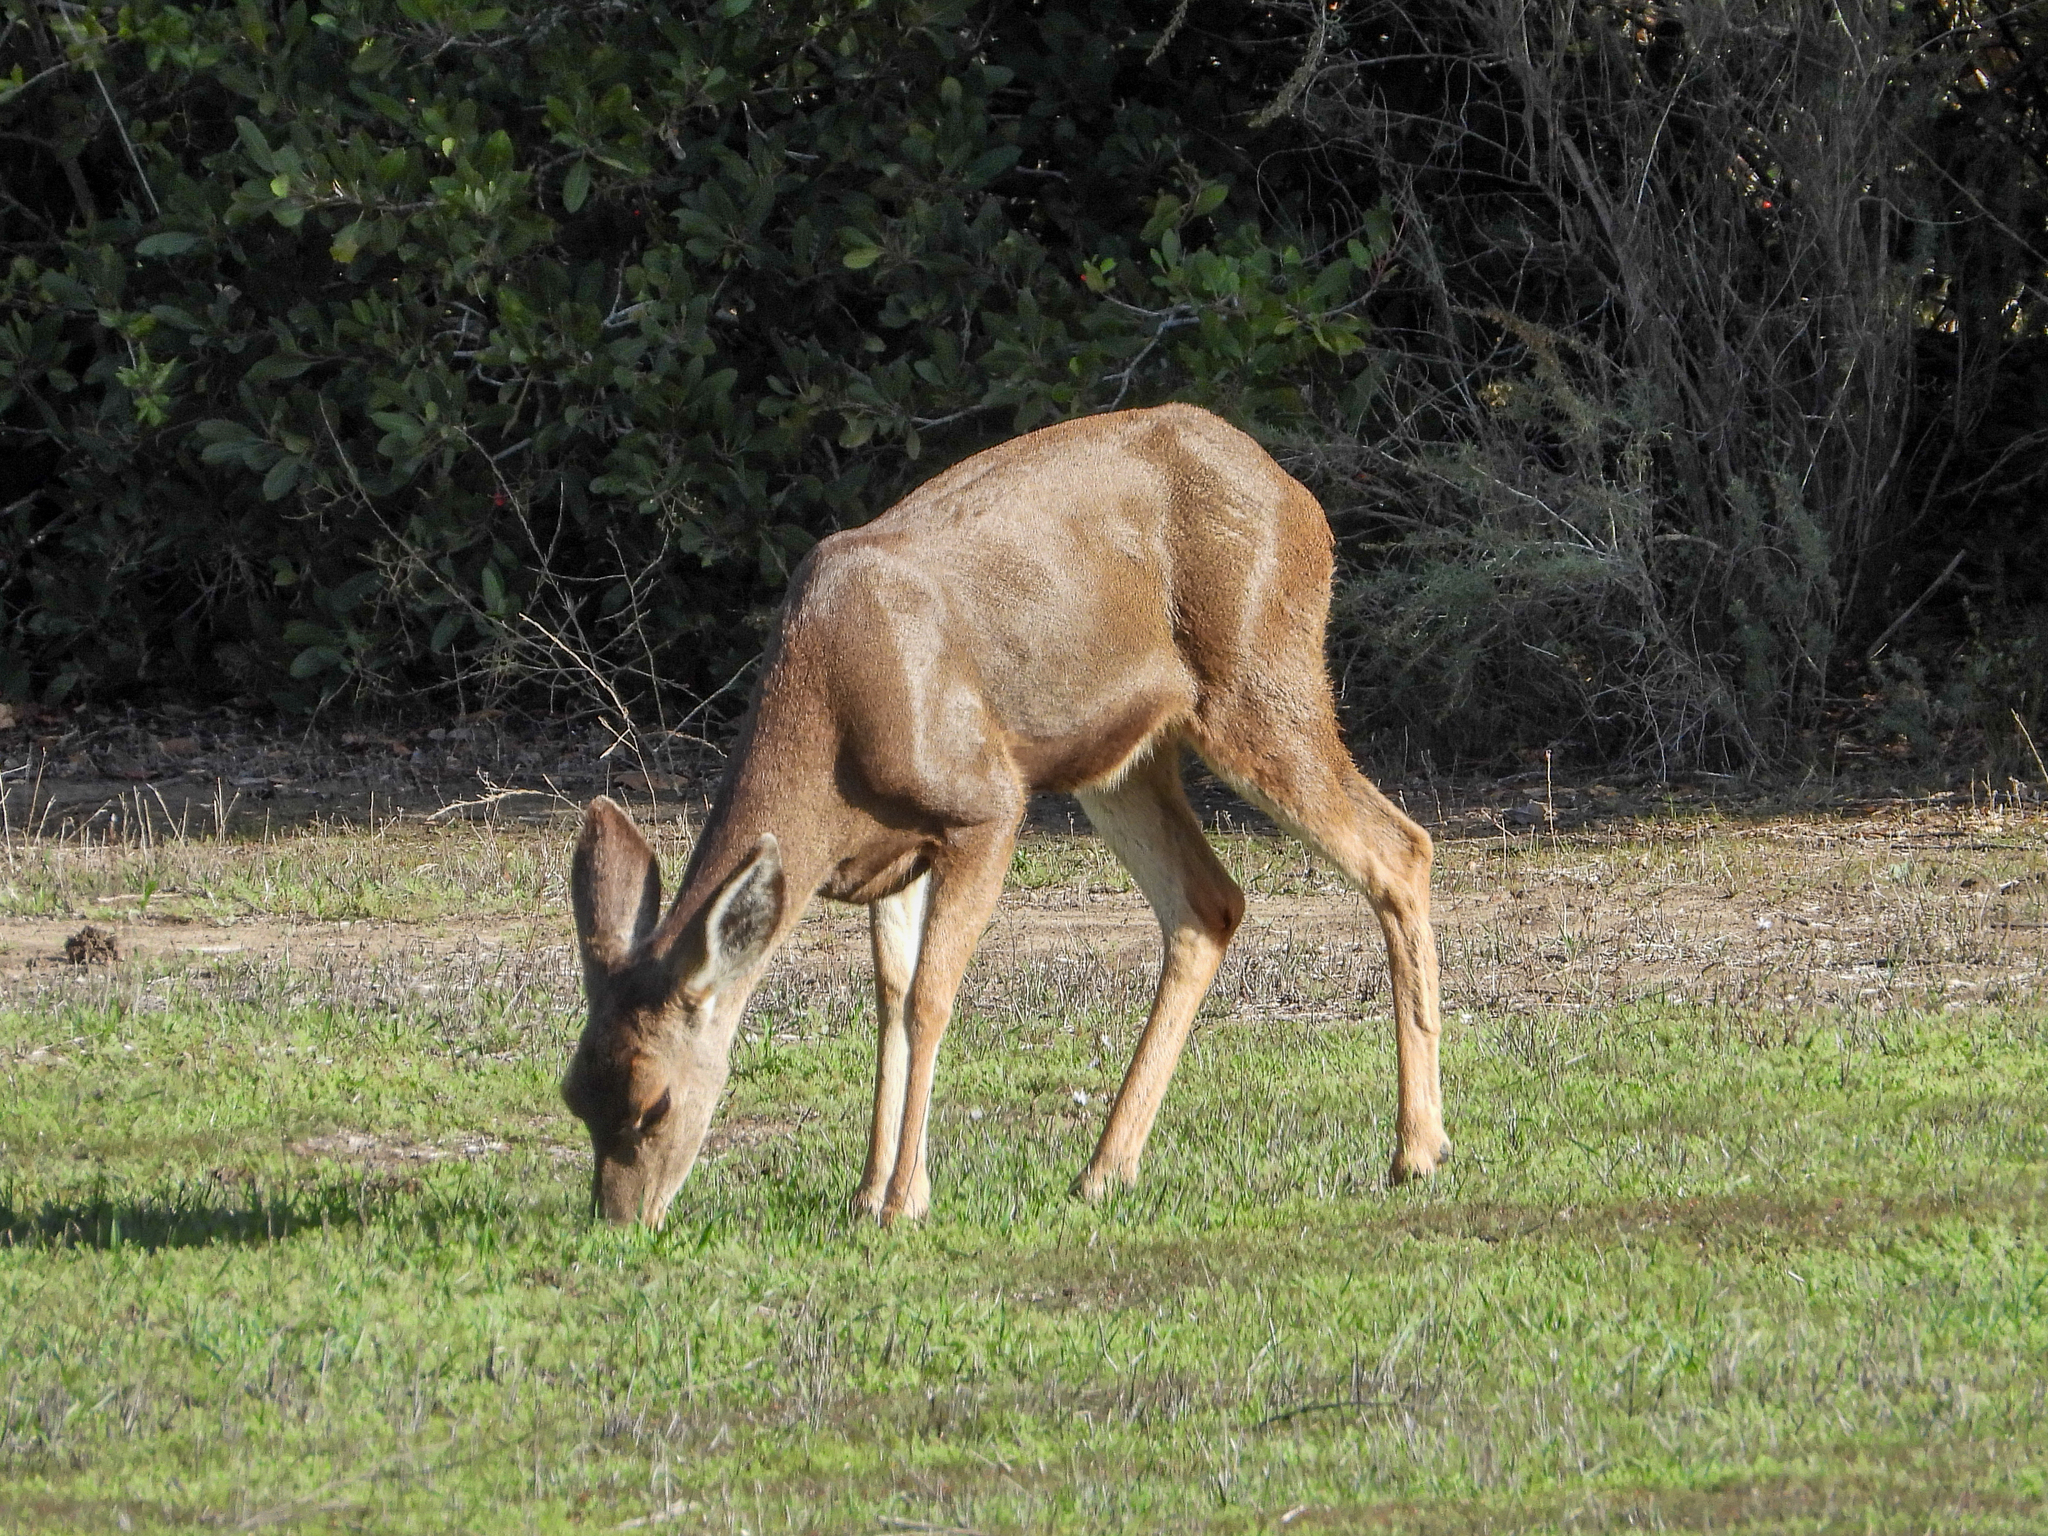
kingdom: Animalia
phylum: Chordata
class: Mammalia
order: Artiodactyla
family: Cervidae
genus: Odocoileus
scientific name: Odocoileus hemionus
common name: Mule deer
